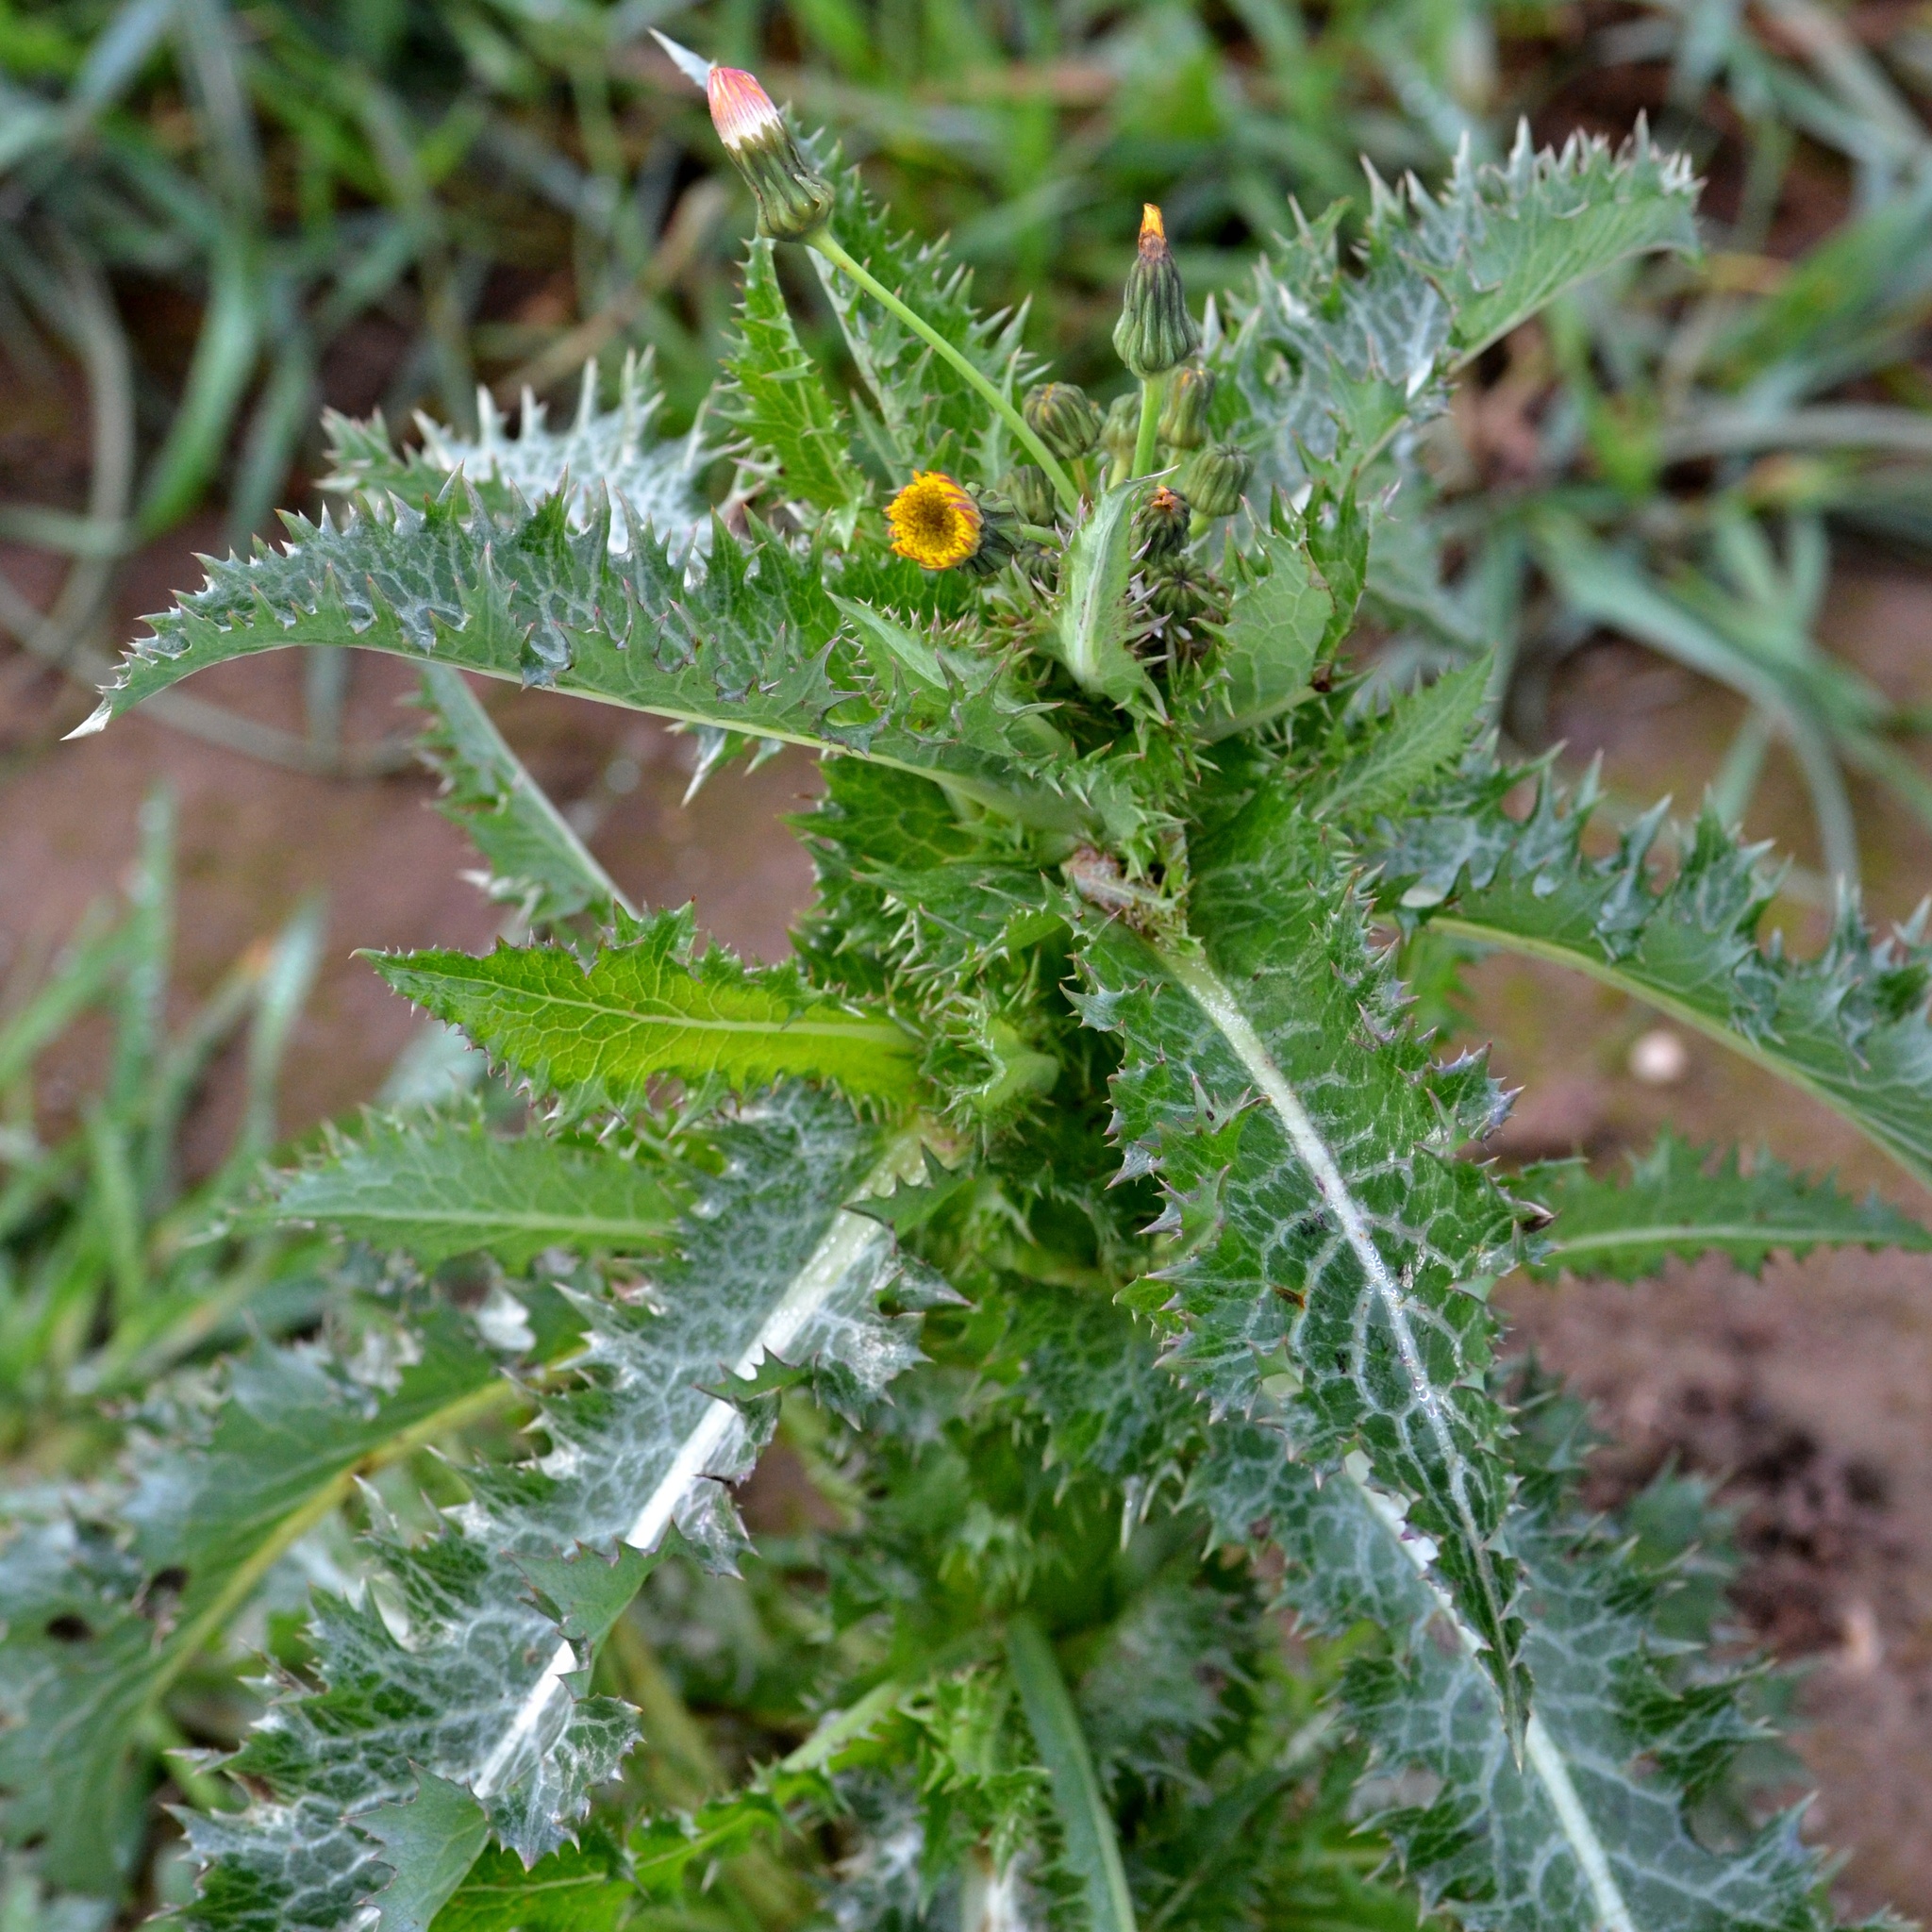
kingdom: Plantae
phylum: Tracheophyta
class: Magnoliopsida
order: Asterales
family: Asteraceae
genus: Sonchus
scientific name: Sonchus asper
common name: Prickly sow-thistle
